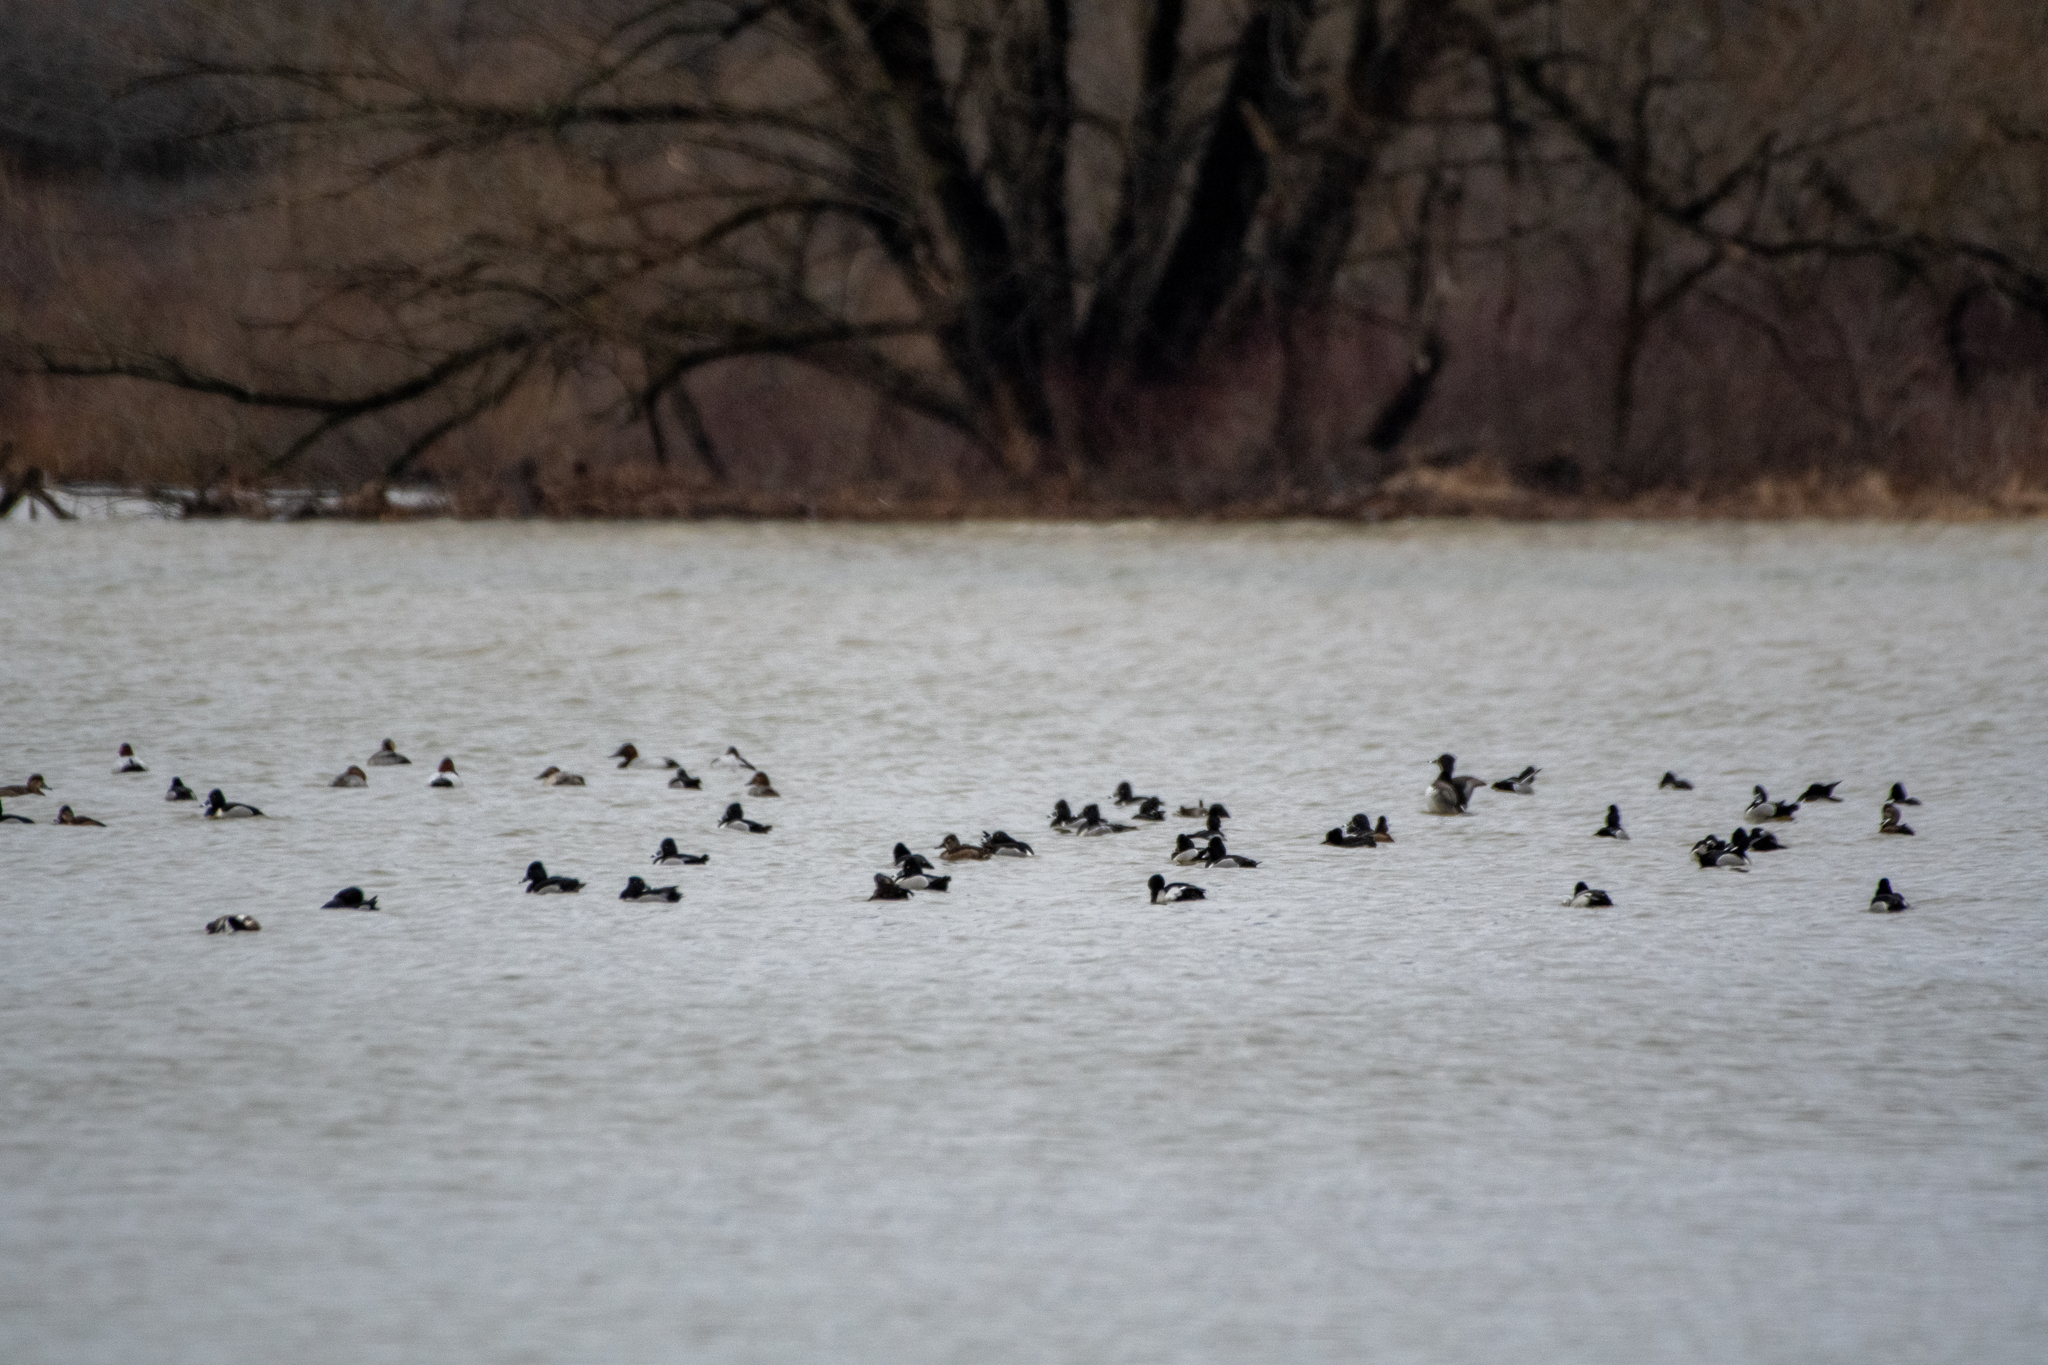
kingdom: Animalia
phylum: Chordata
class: Aves
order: Anseriformes
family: Anatidae
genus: Aythya
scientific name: Aythya collaris
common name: Ring-necked duck
